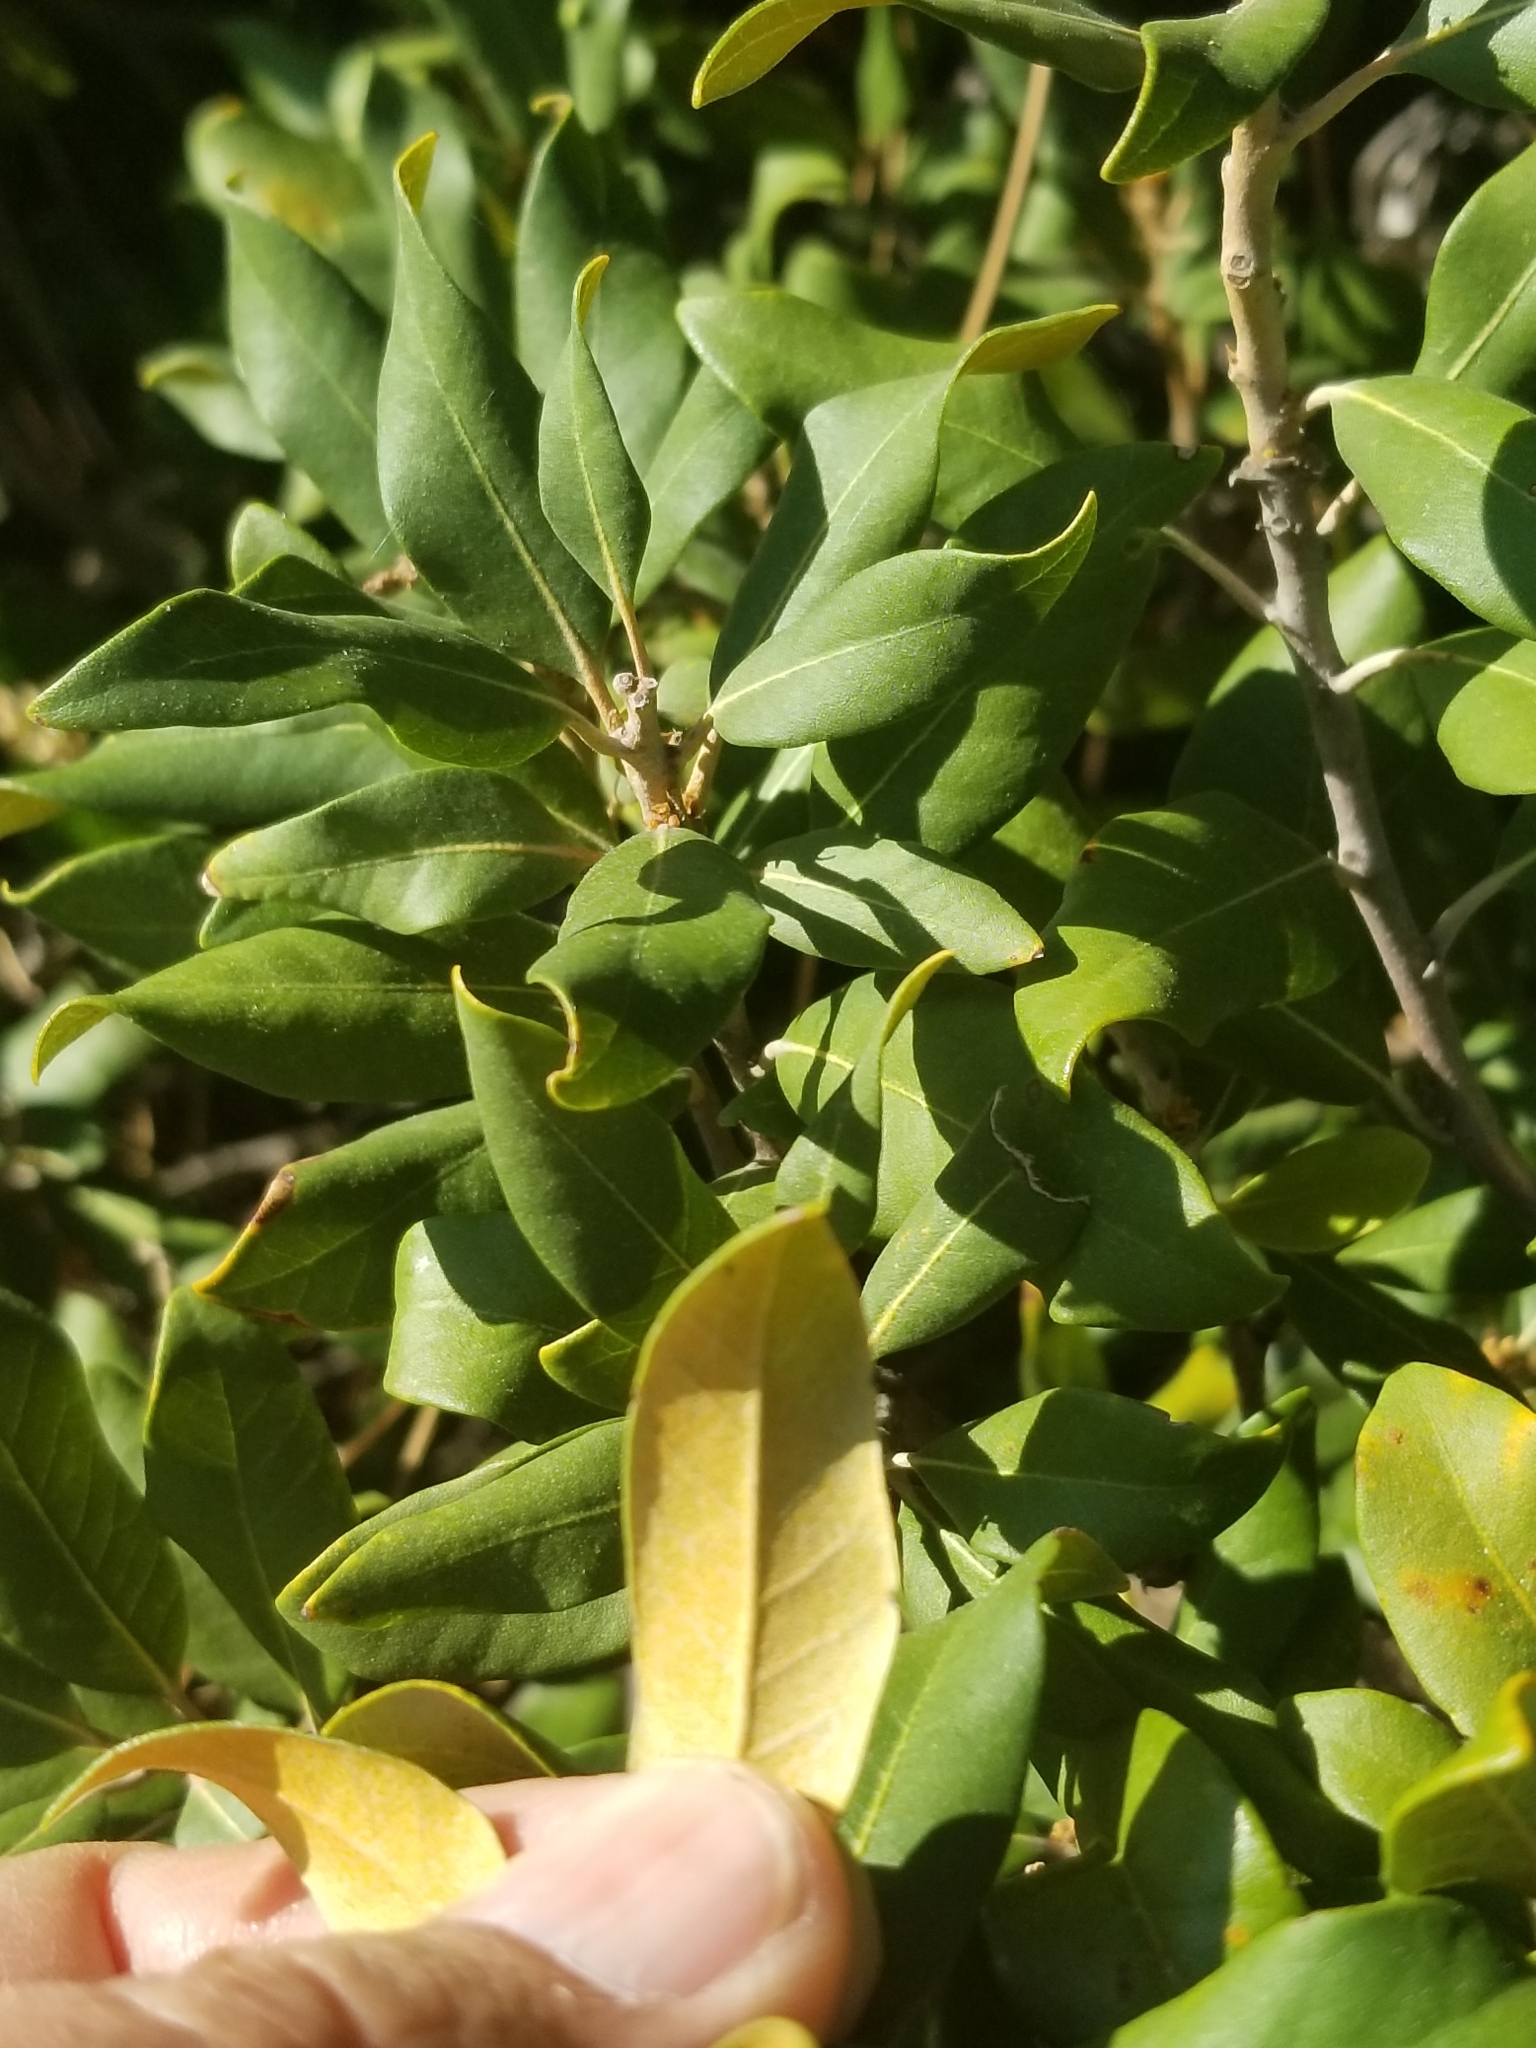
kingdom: Plantae
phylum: Tracheophyta
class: Magnoliopsida
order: Fagales
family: Fagaceae
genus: Chrysolepis
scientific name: Chrysolepis sempervirens
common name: Bush chinquapin
